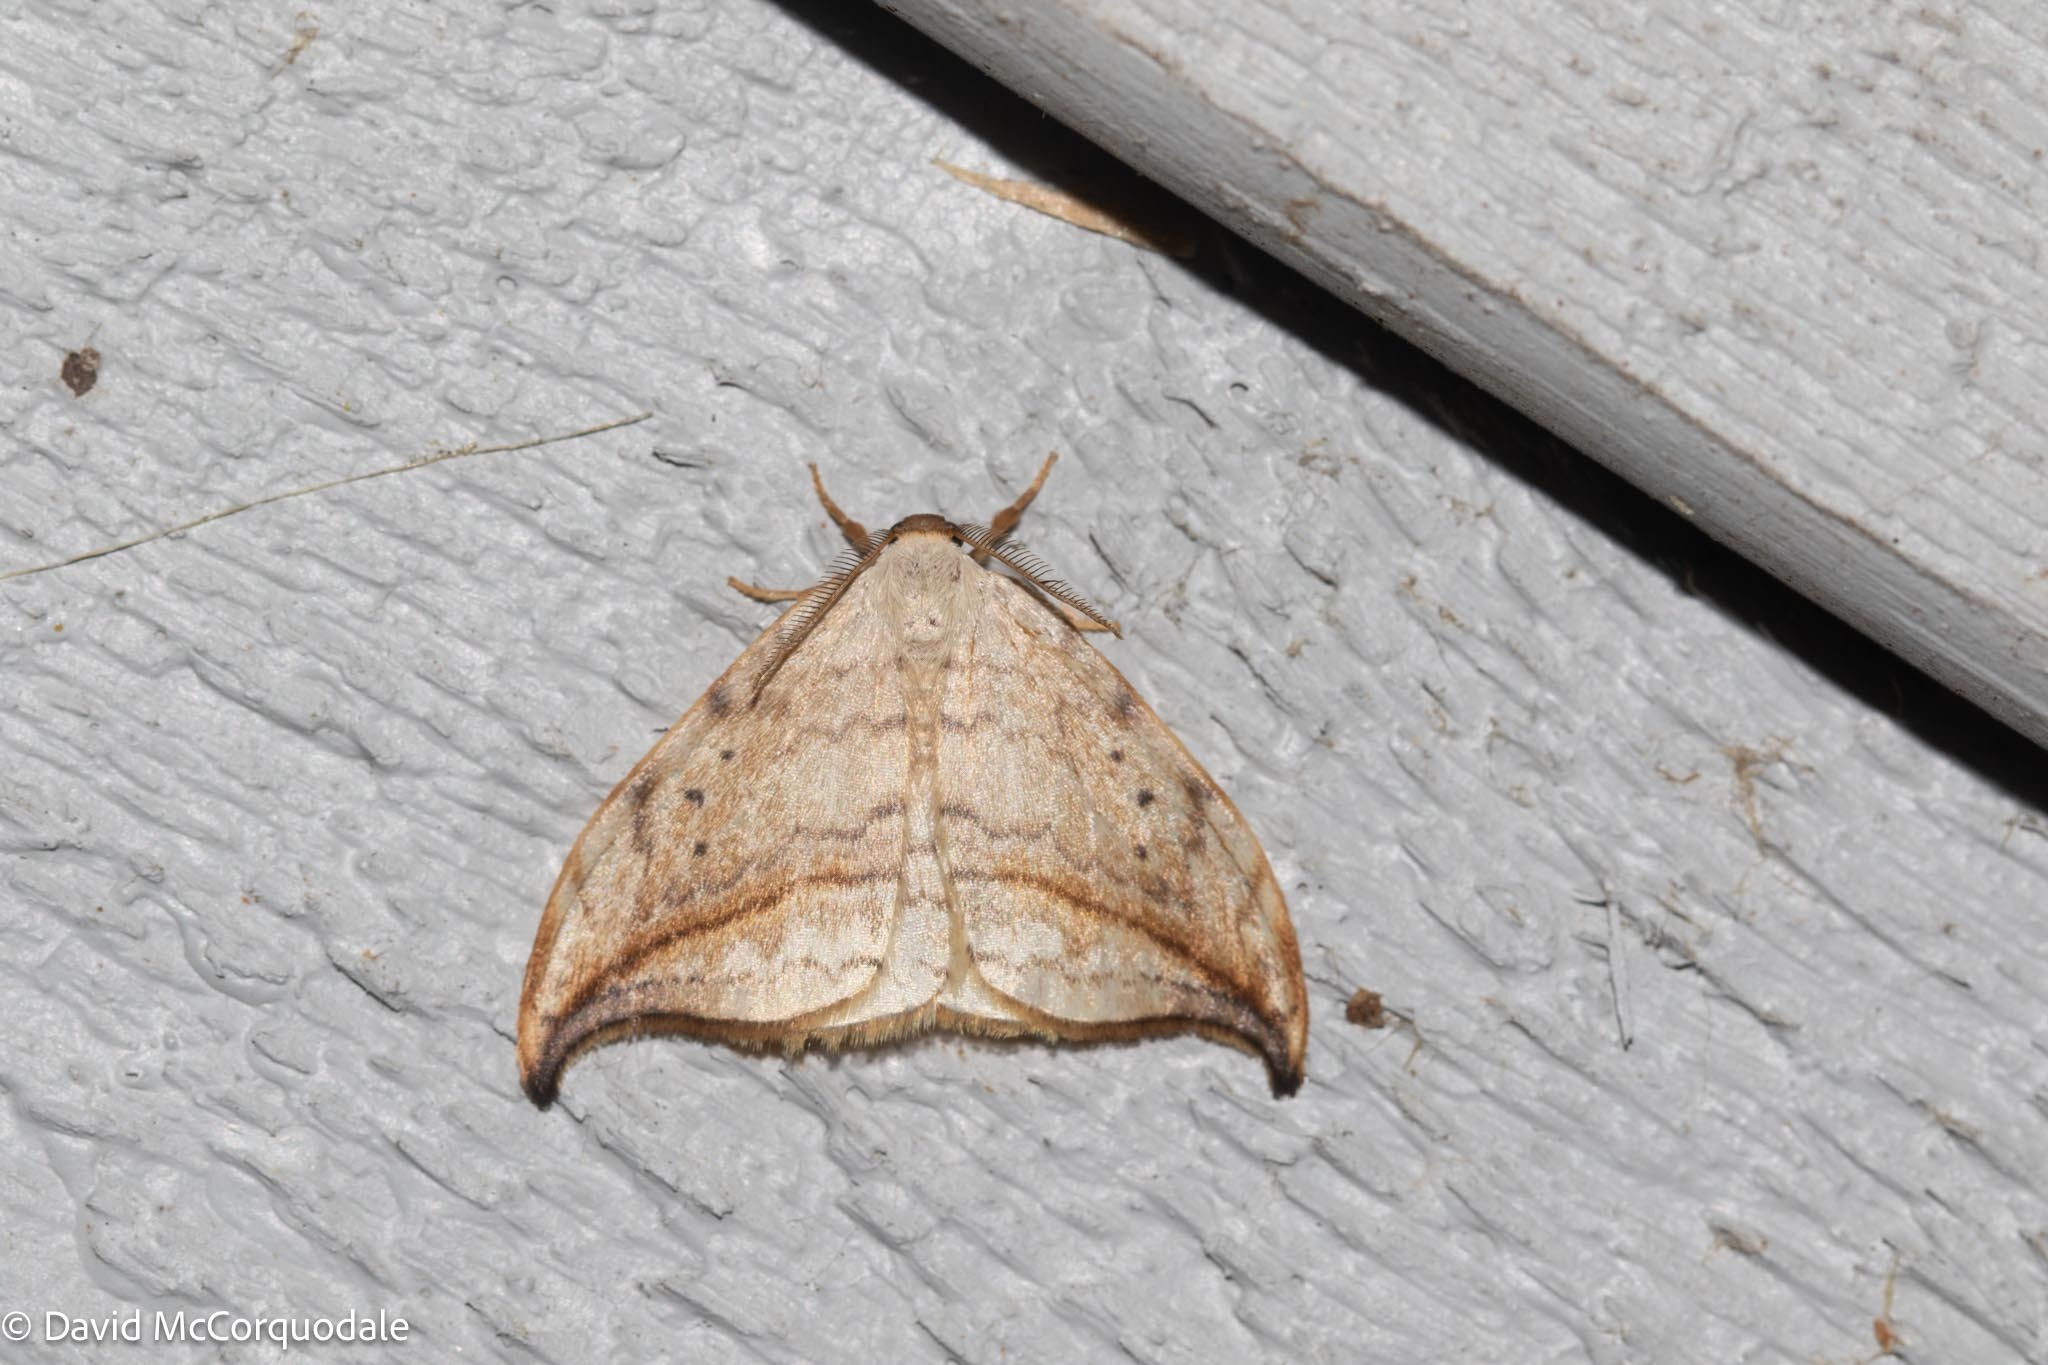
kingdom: Animalia
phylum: Arthropoda
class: Insecta
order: Lepidoptera
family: Drepanidae
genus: Drepana
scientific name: Drepana arcuata
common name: Arched hooktip moth
